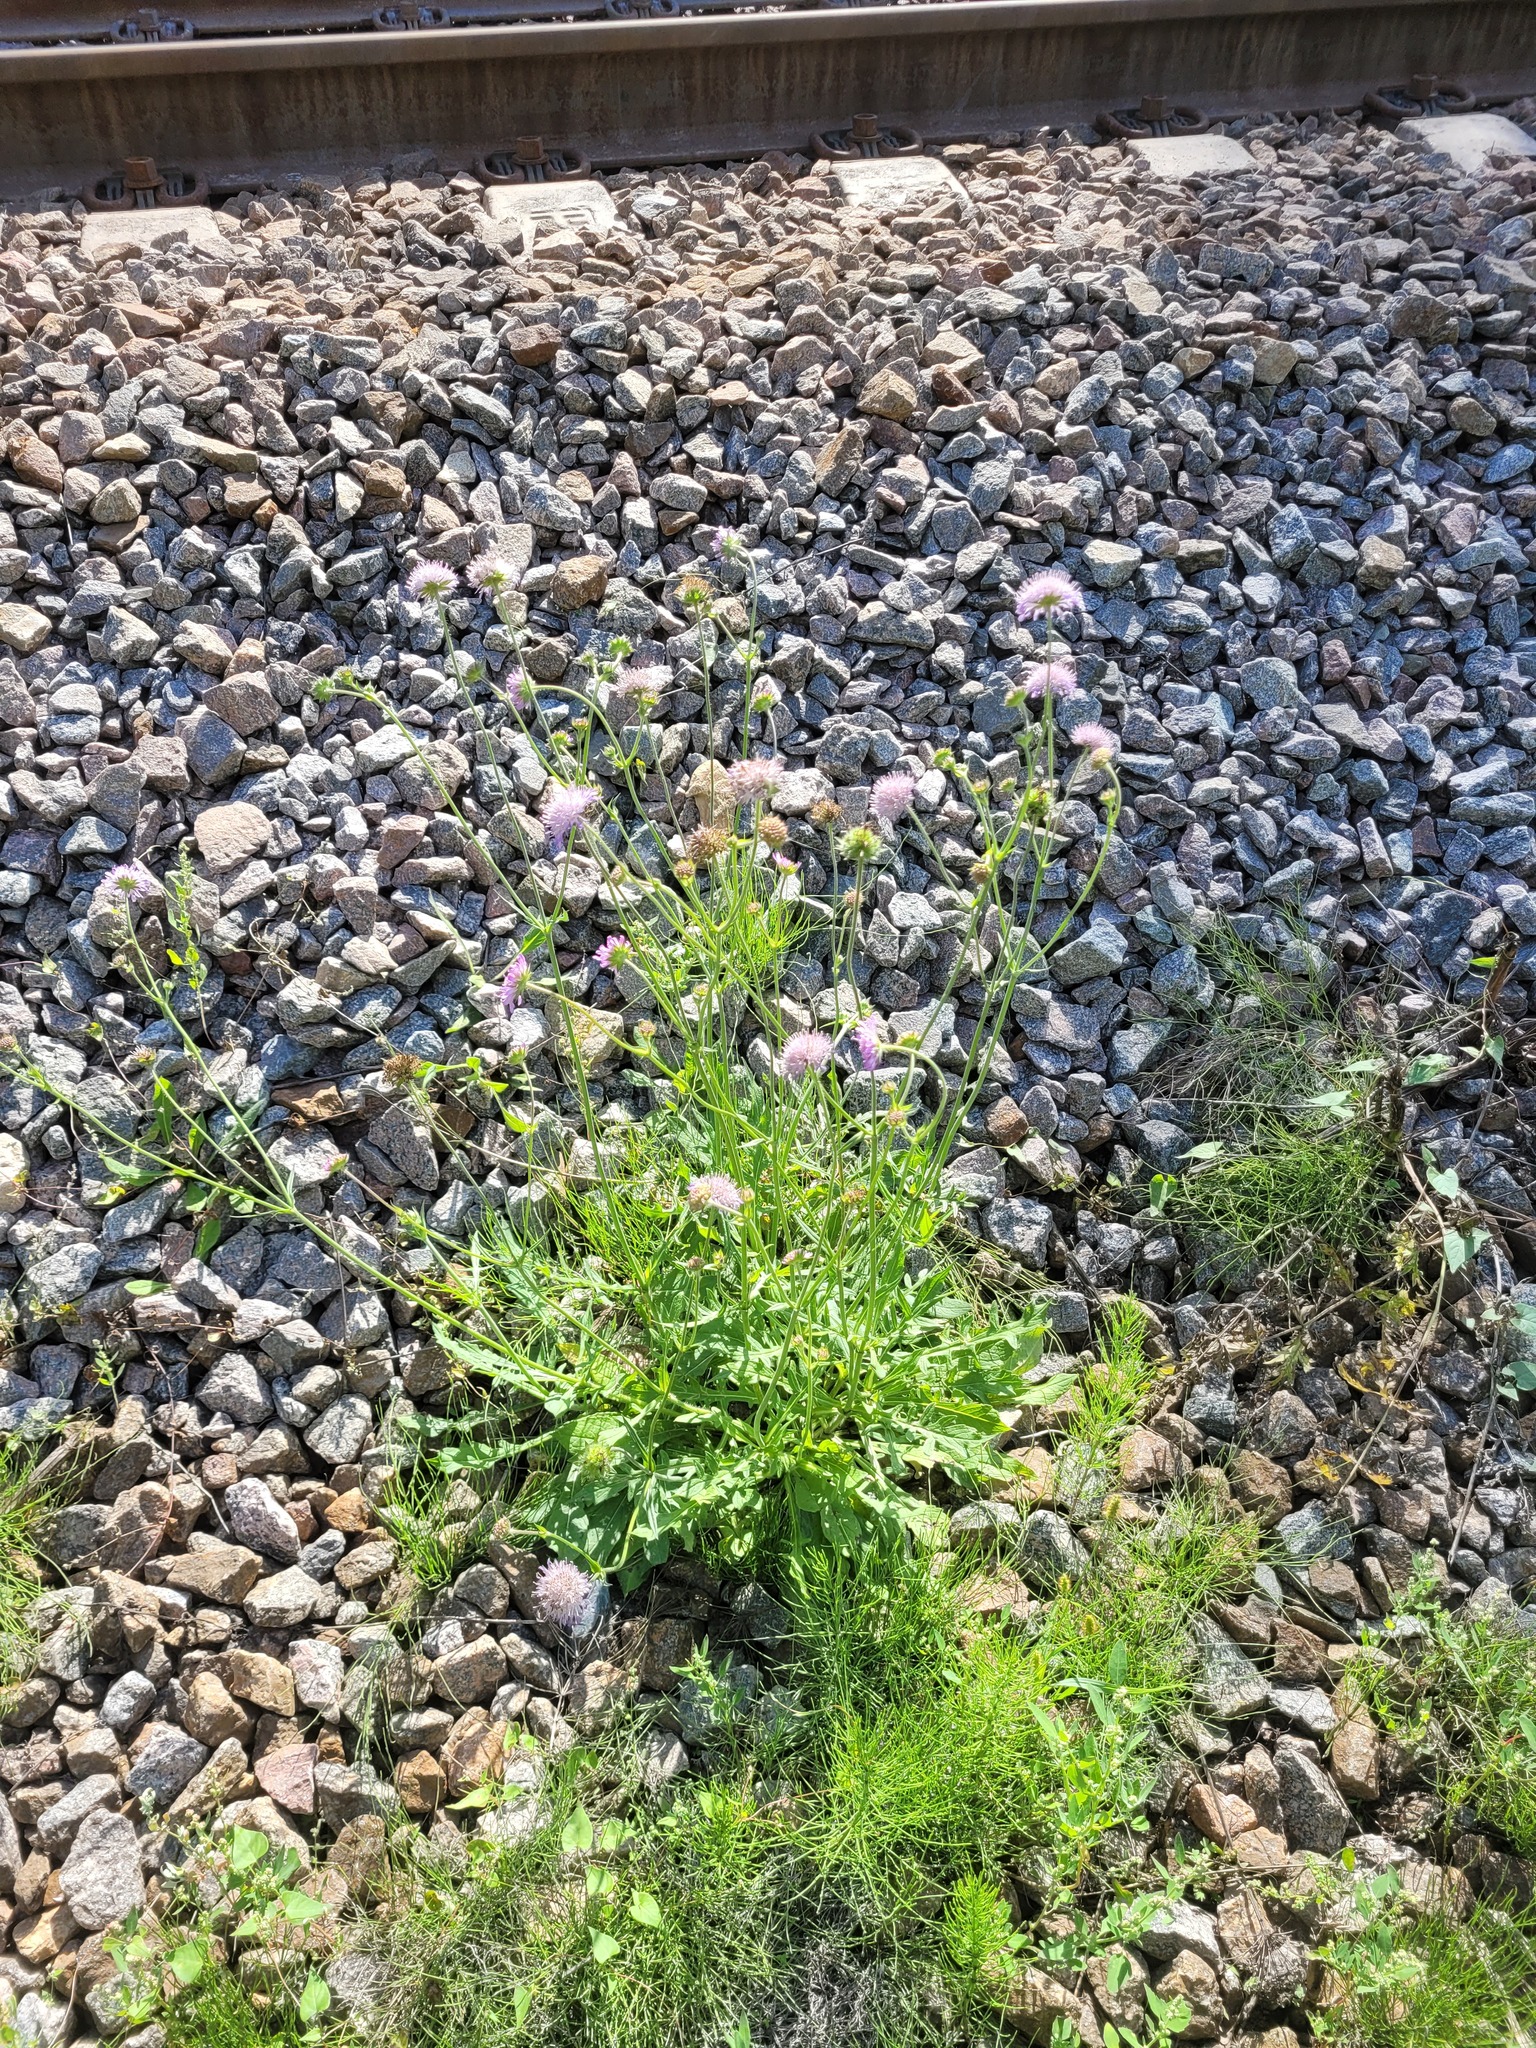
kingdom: Plantae
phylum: Tracheophyta
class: Magnoliopsida
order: Dipsacales
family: Caprifoliaceae
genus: Knautia
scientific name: Knautia arvensis
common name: Field scabiosa
